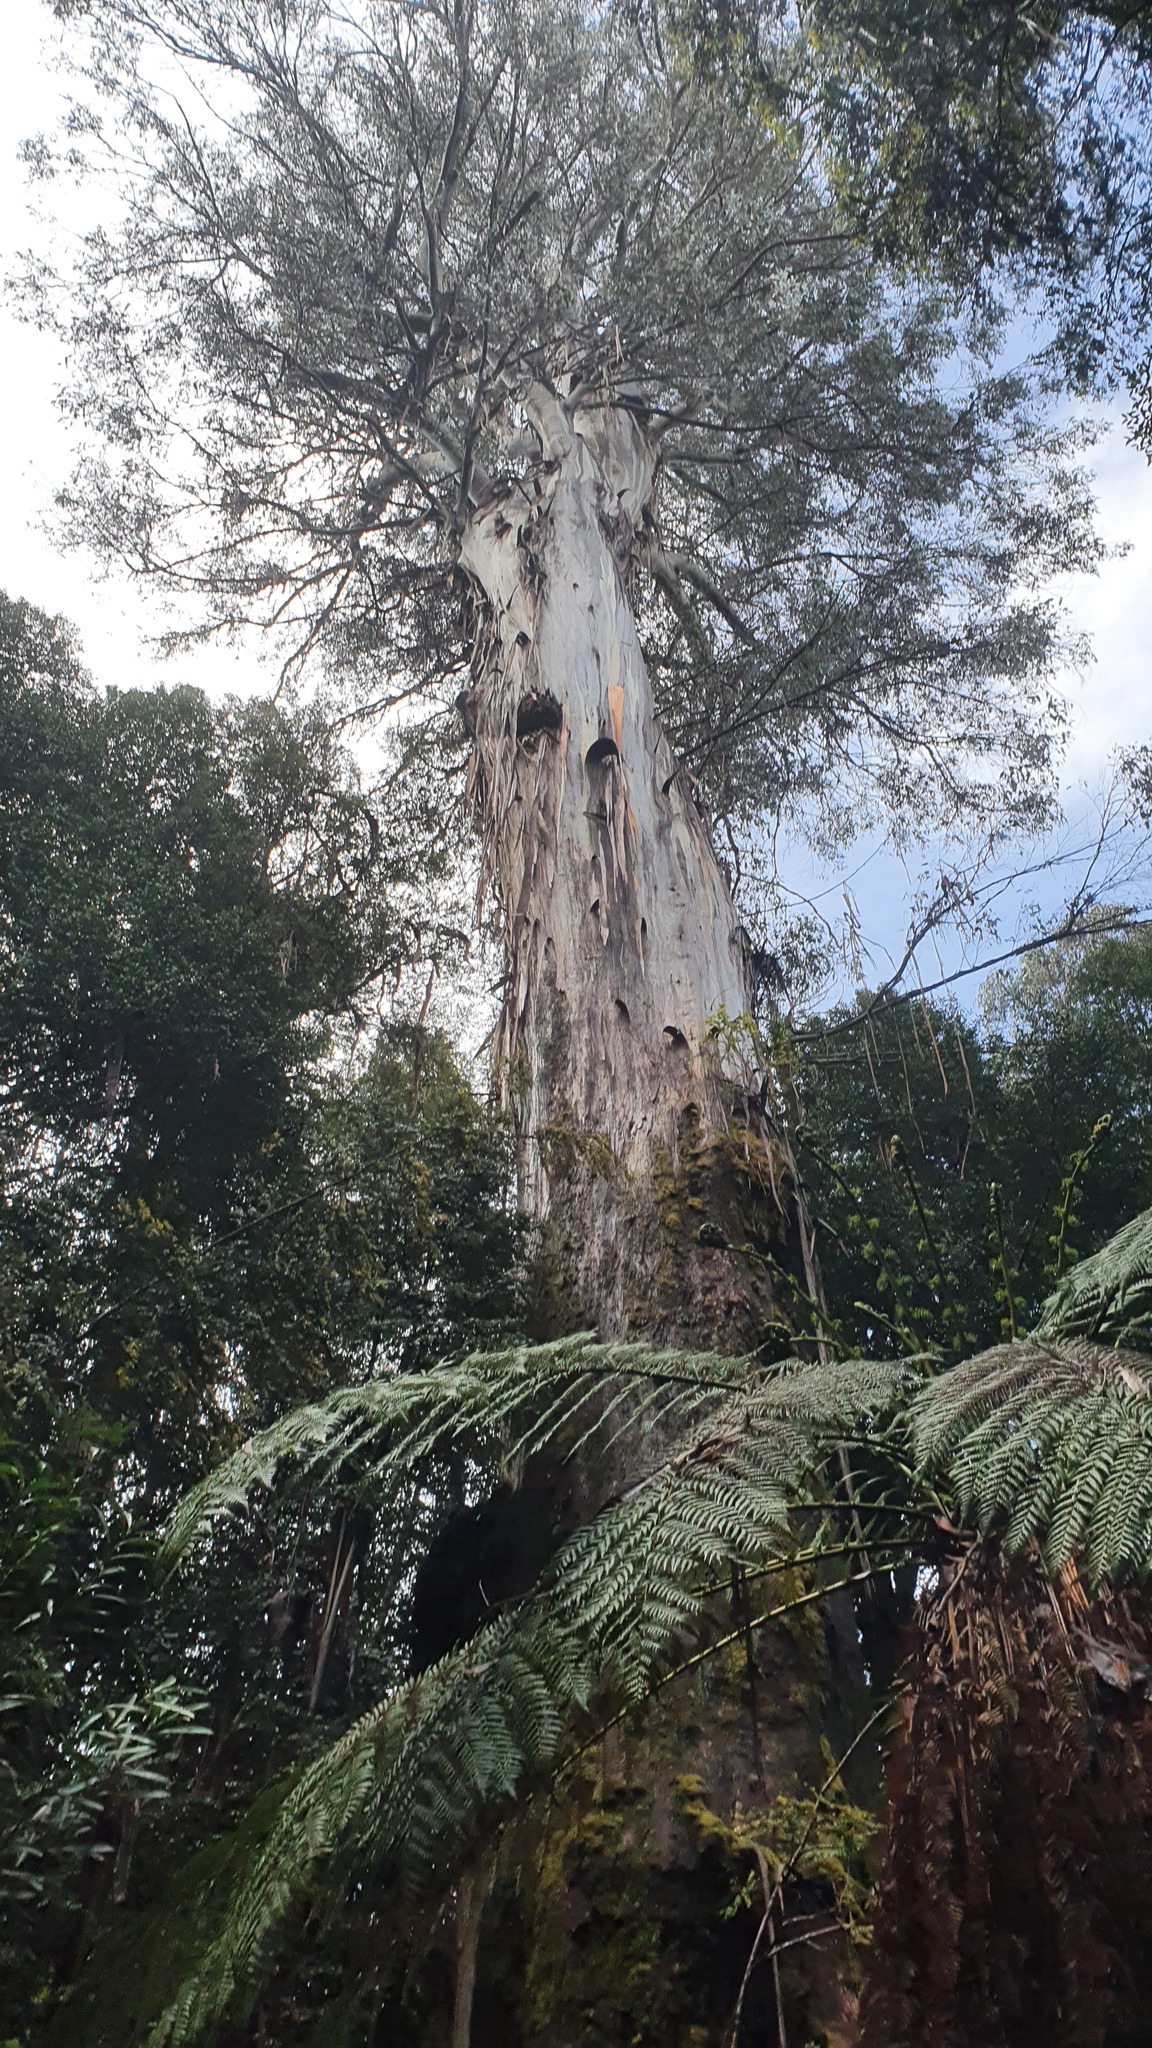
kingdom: Plantae
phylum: Tracheophyta
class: Magnoliopsida
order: Myrtales
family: Myrtaceae
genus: Eucalyptus
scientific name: Eucalyptus regnans
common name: Stringy gum
